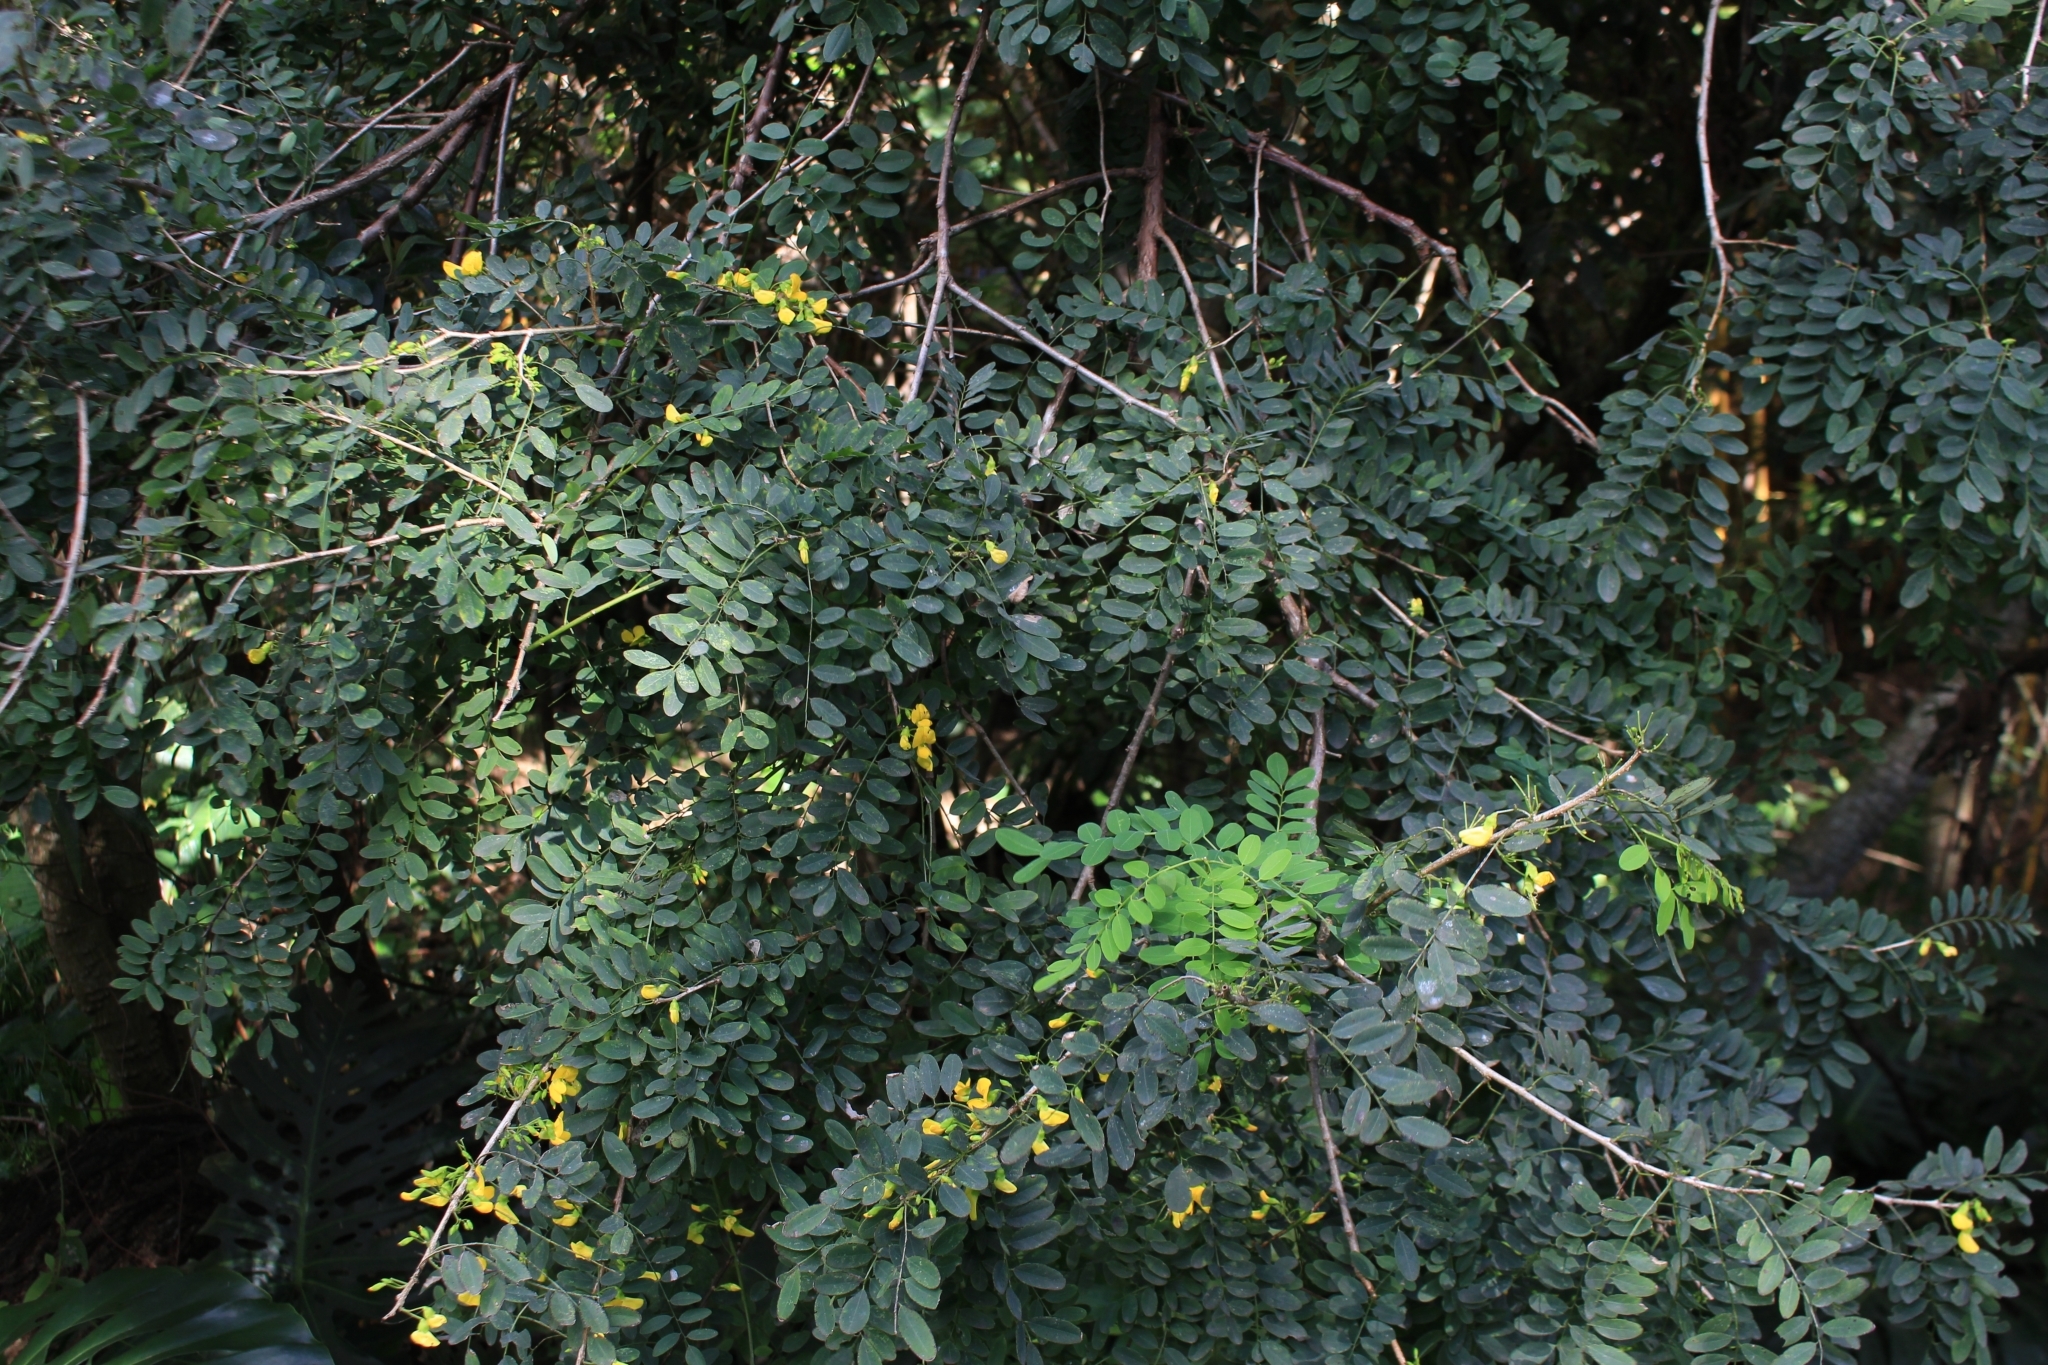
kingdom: Plantae
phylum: Tracheophyta
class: Magnoliopsida
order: Fabales
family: Fabaceae
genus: Diphysa
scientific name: Diphysa americana
